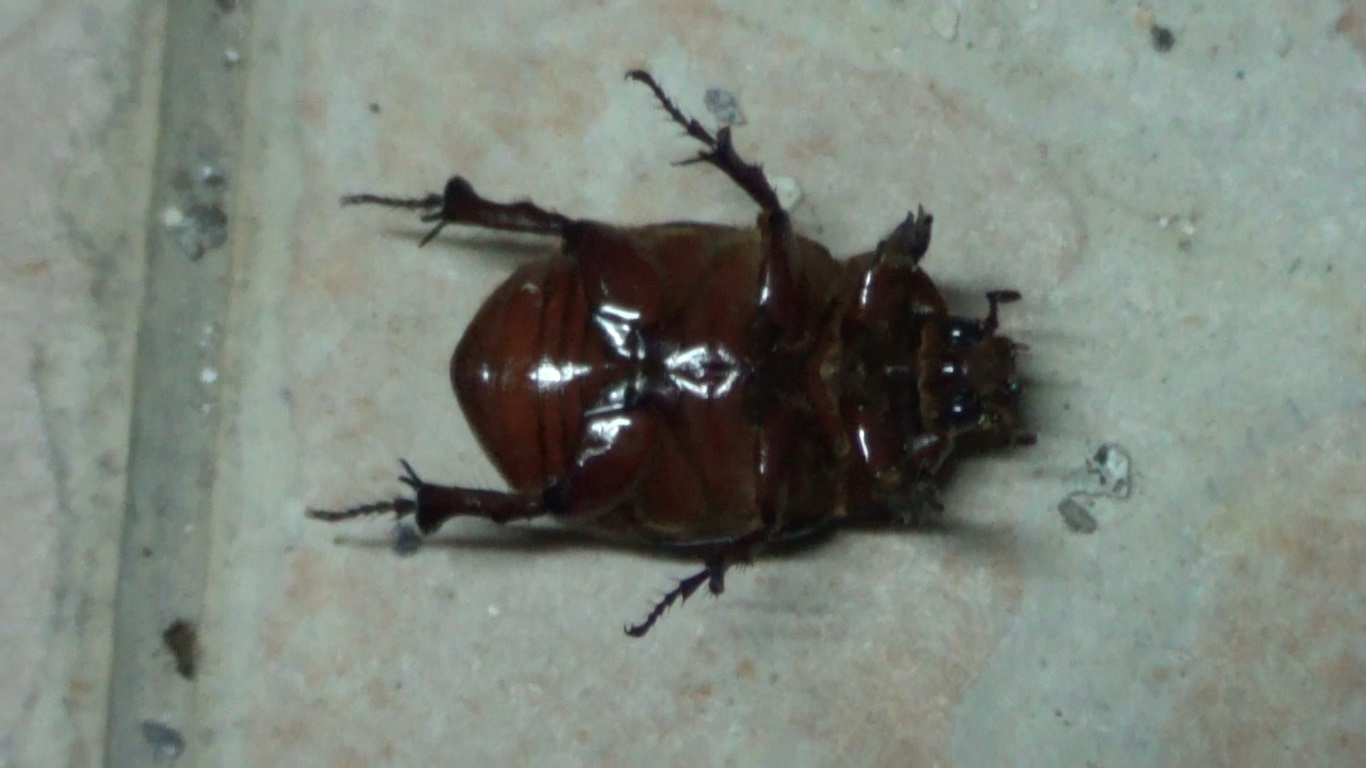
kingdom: Animalia
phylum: Arthropoda
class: Insecta
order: Coleoptera
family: Scarabaeidae
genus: Phyllognathus
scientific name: Phyllognathus excavatus
